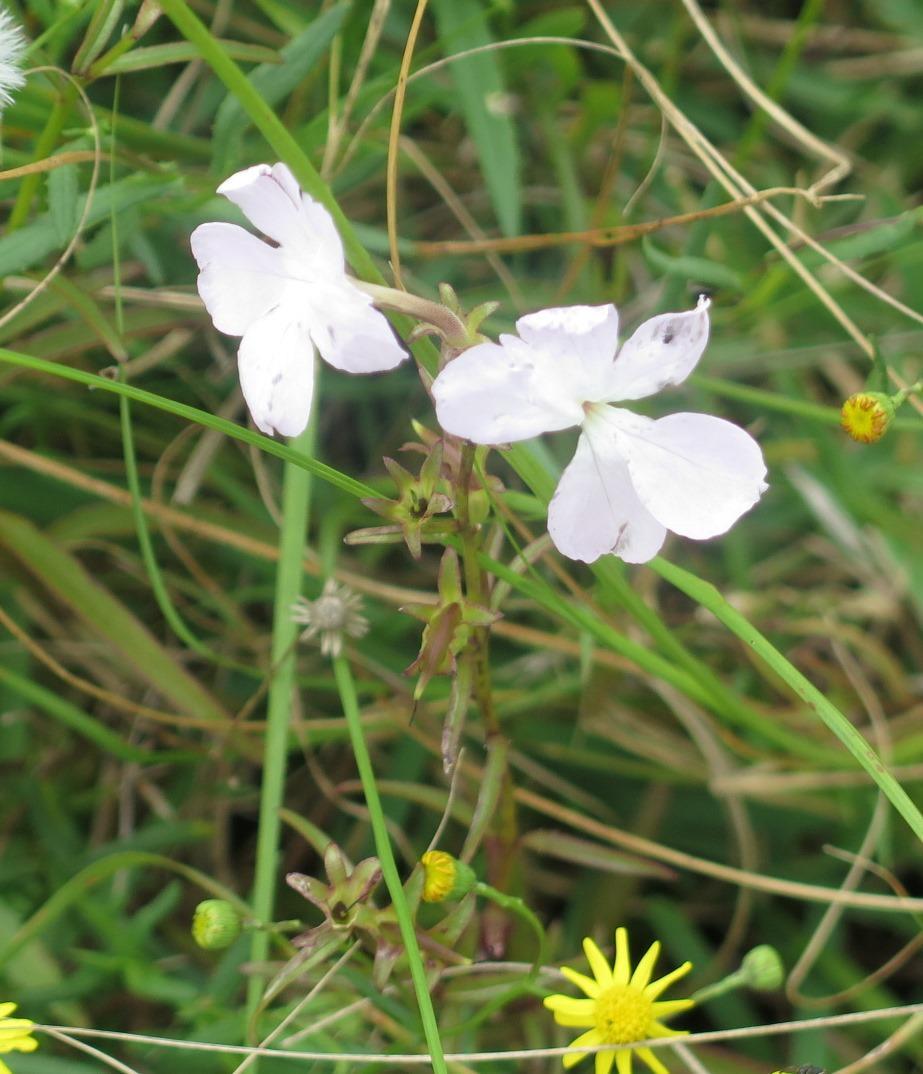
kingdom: Plantae
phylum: Tracheophyta
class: Magnoliopsida
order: Lamiales
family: Orobanchaceae
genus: Cycnium
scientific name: Cycnium tubulosum
